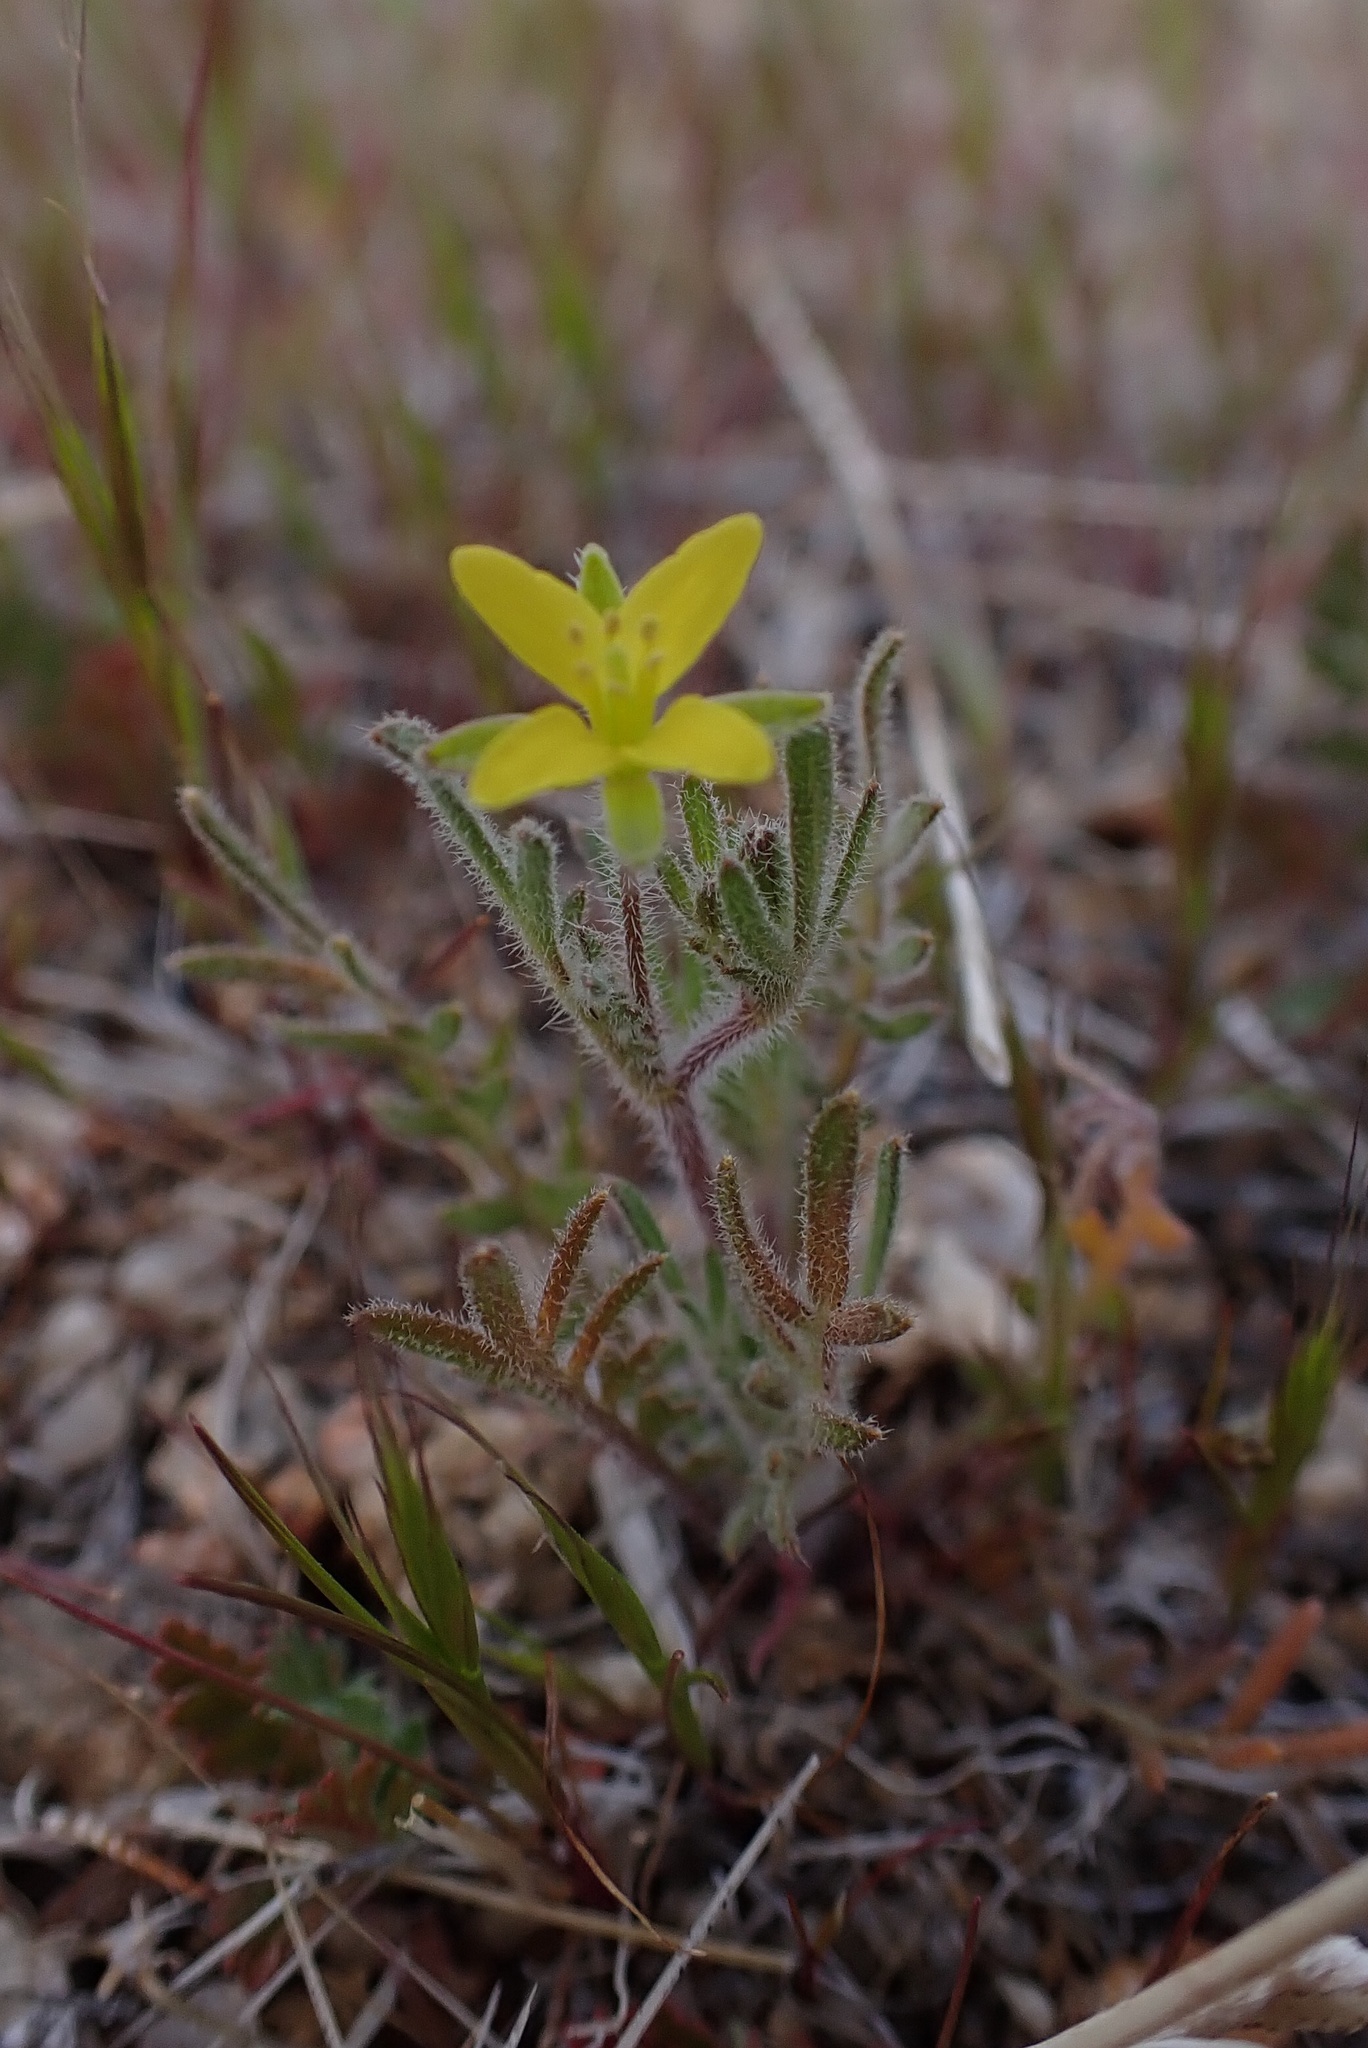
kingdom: Plantae
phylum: Tracheophyta
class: Magnoliopsida
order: Brassicales
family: Brassicaceae
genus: Tropidocarpum
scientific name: Tropidocarpum gracile
